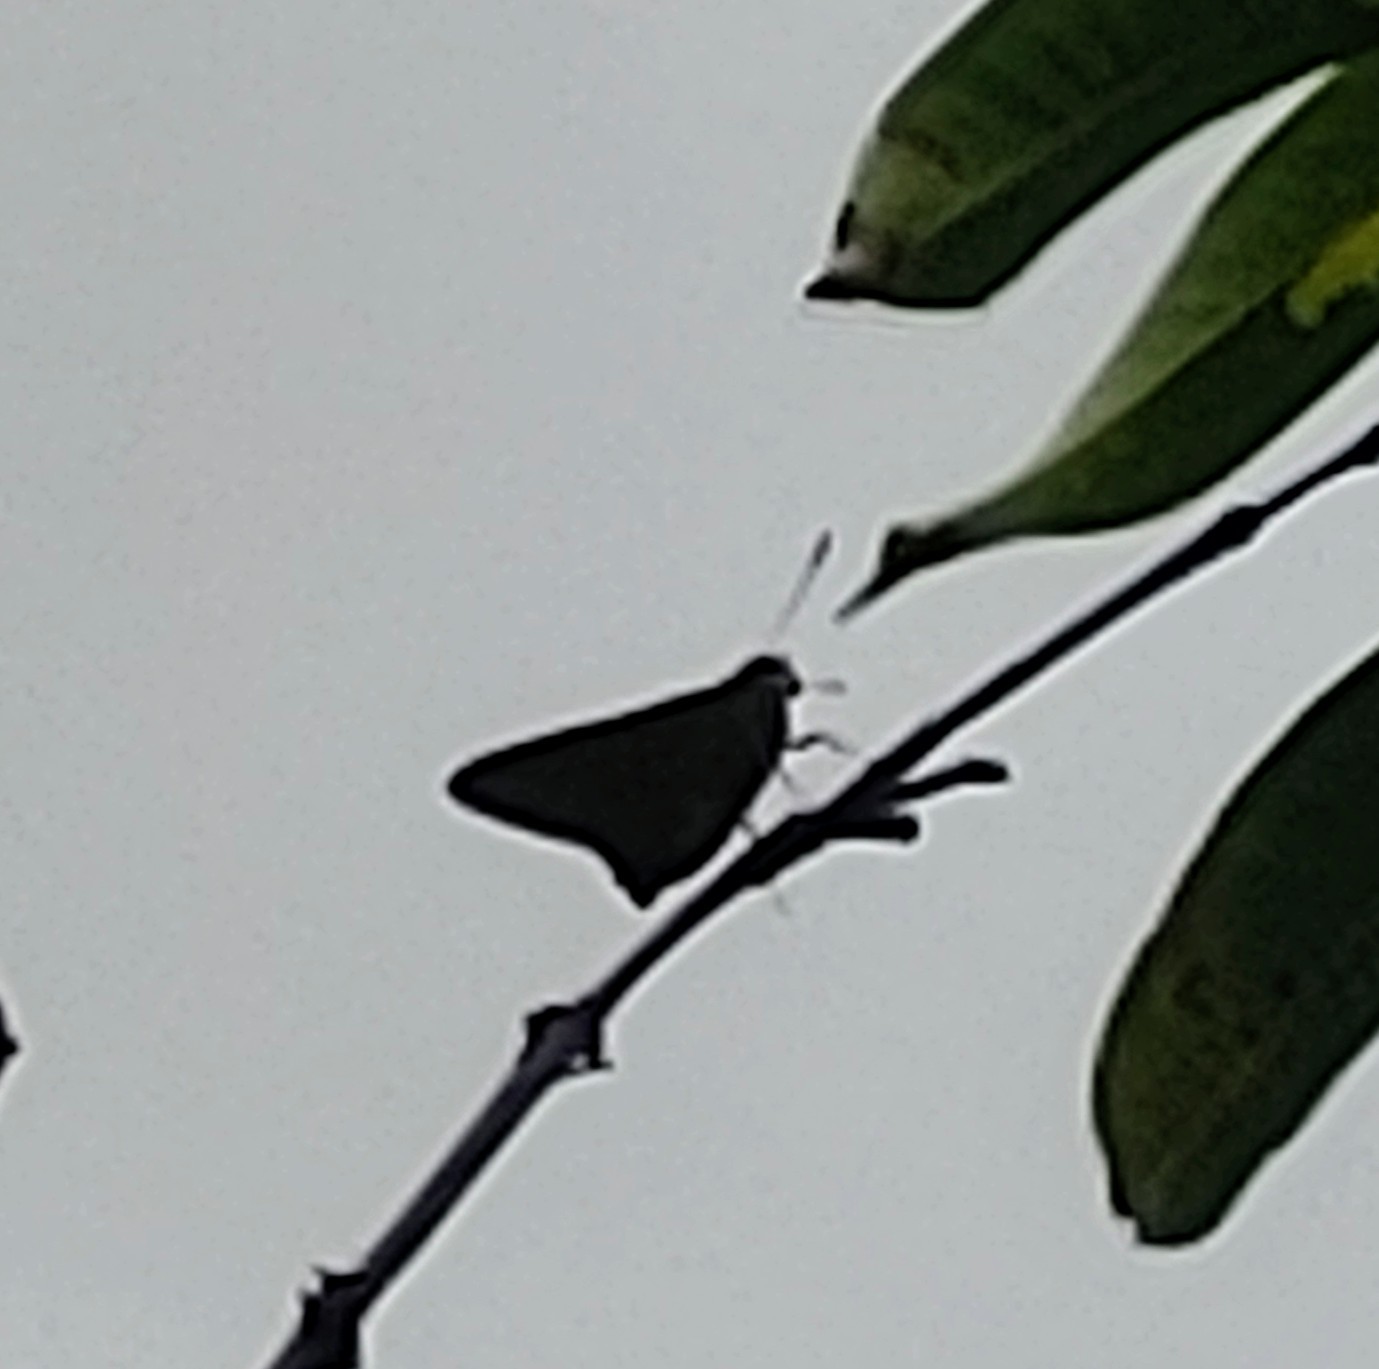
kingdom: Animalia
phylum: Arthropoda
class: Insecta
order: Lepidoptera
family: Hesperiidae
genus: Asbolis
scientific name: Asbolis capucinus
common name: Monk skipper
